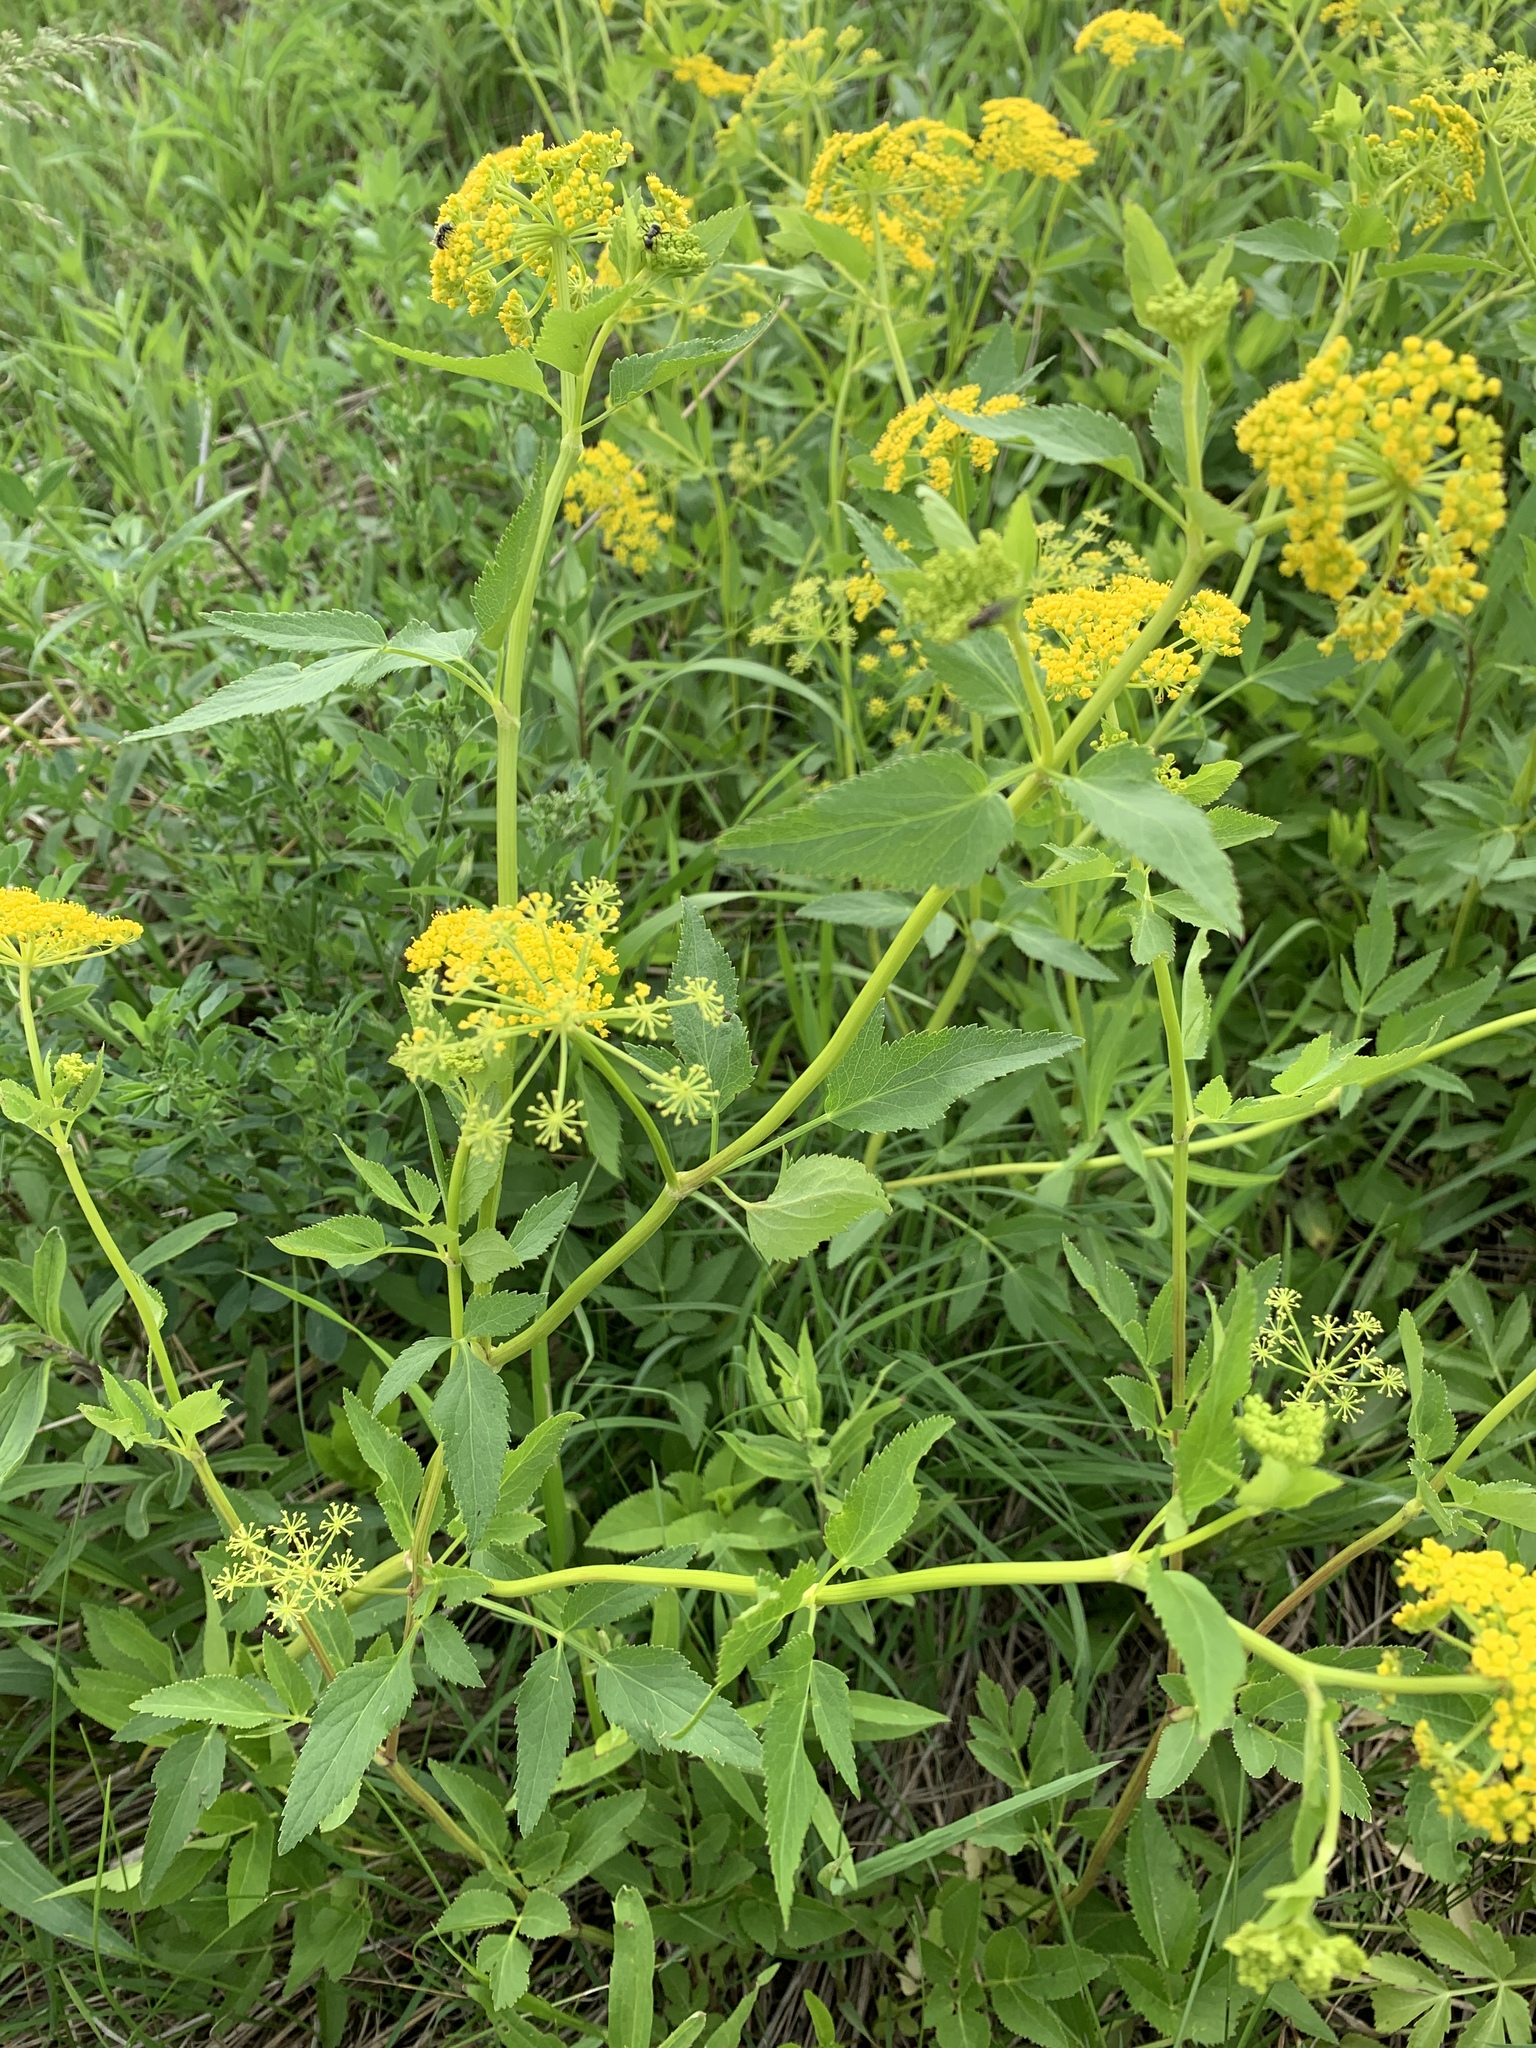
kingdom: Plantae
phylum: Tracheophyta
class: Magnoliopsida
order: Apiales
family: Apiaceae
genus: Zizia
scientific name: Zizia aurea
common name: Golden alexanders
